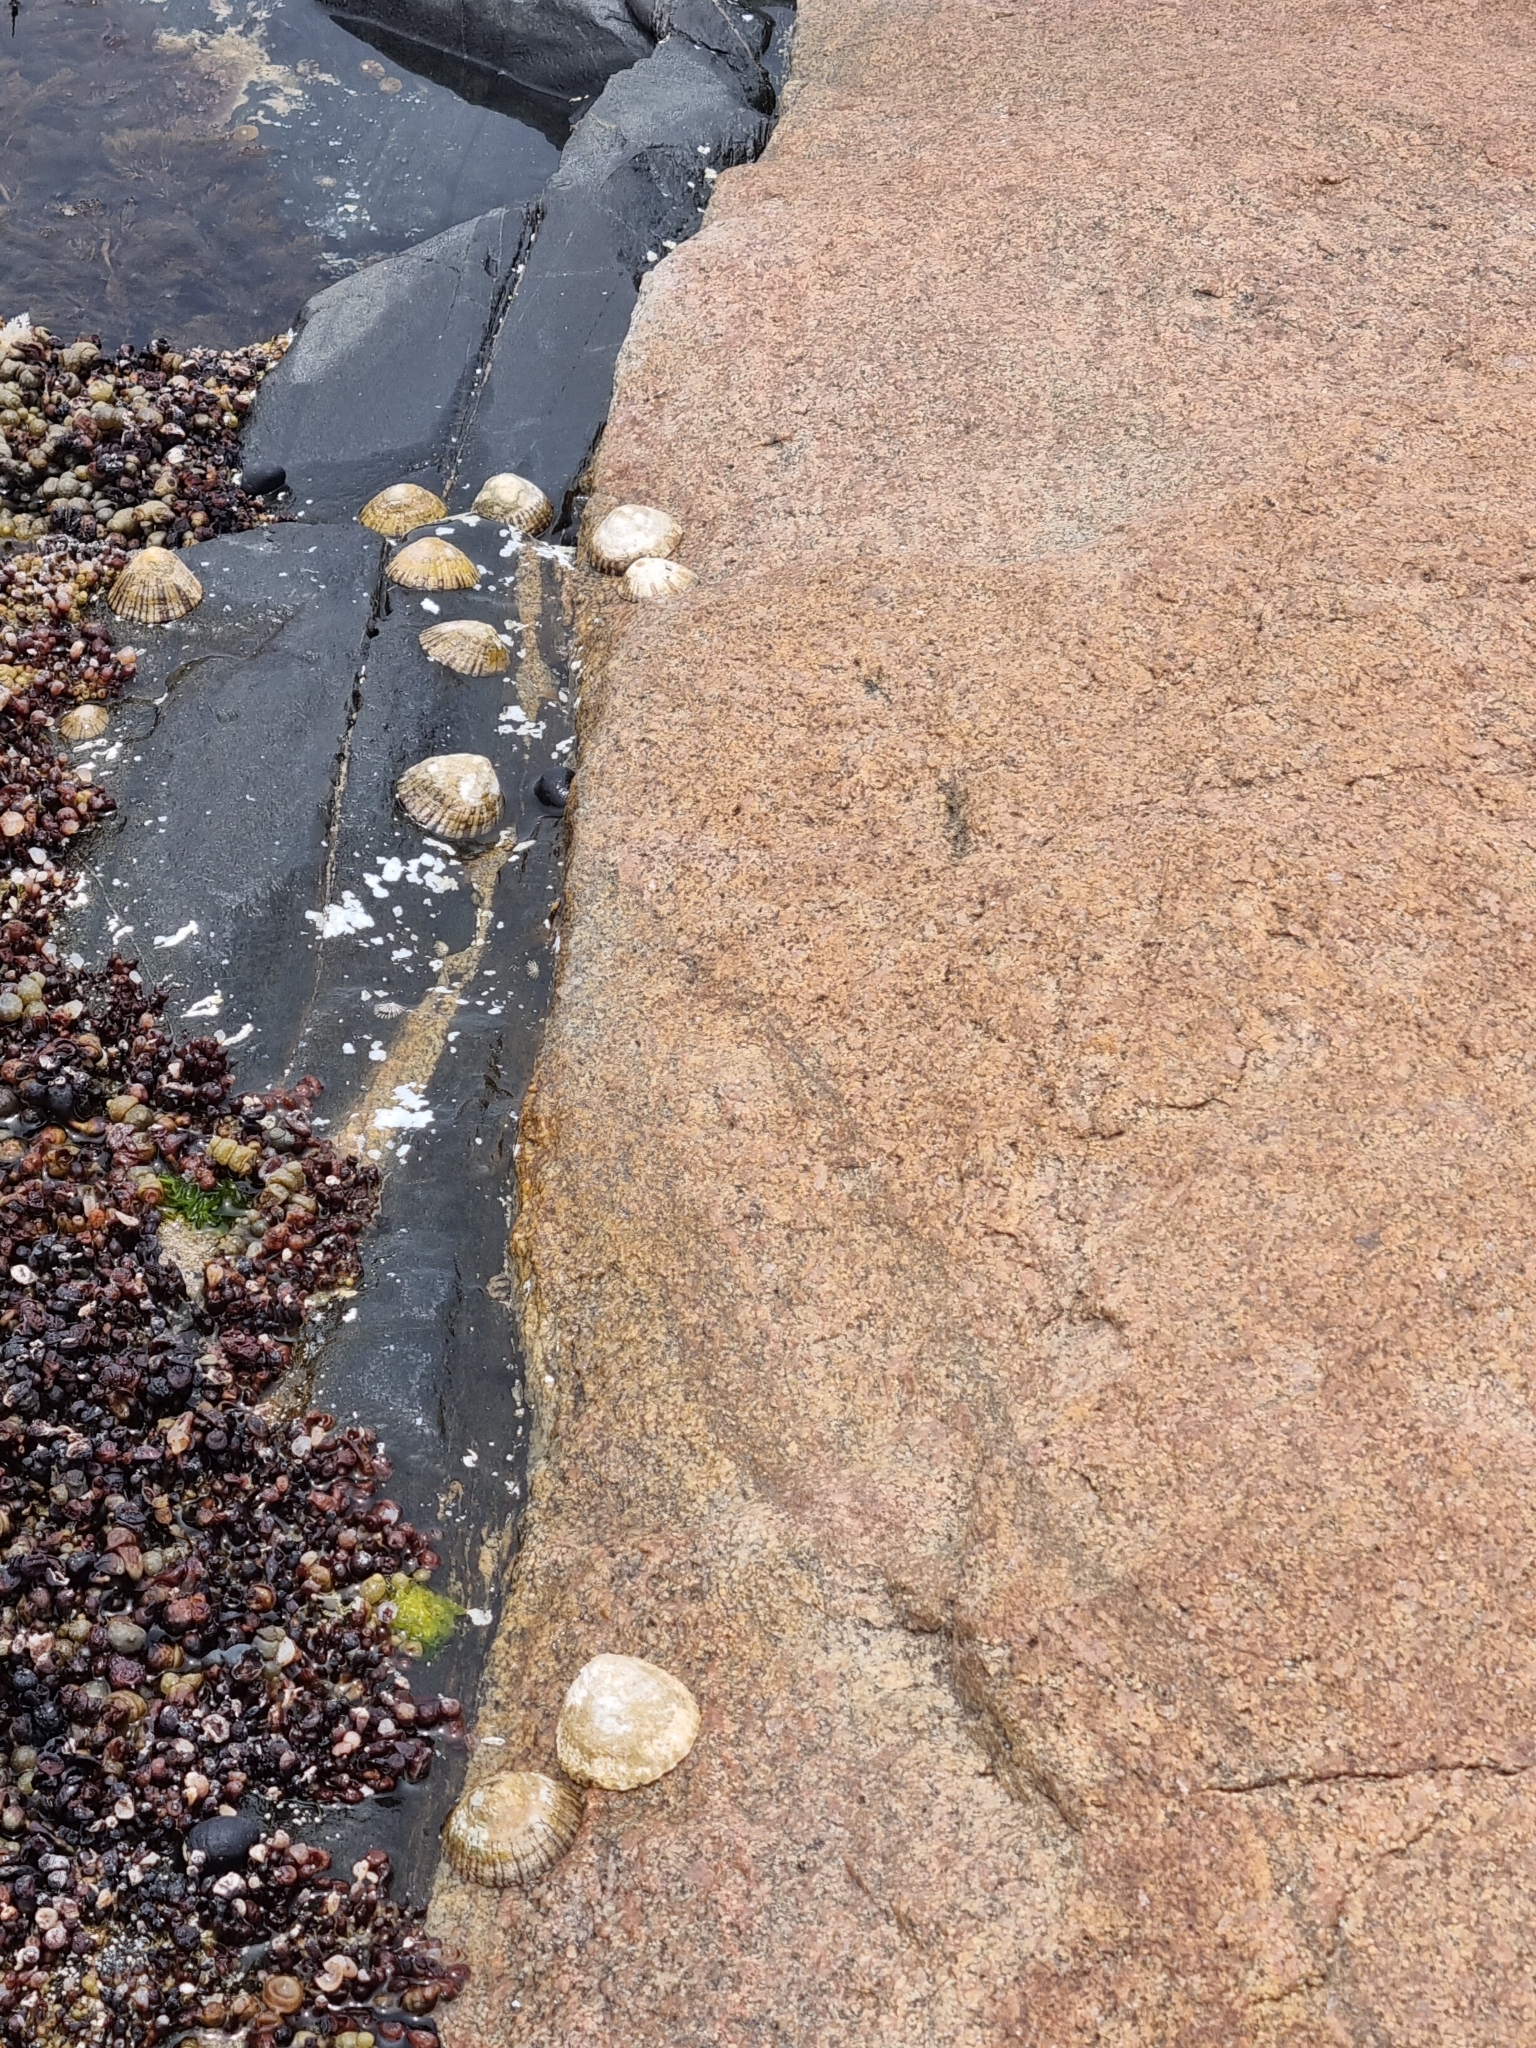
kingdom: Animalia
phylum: Mollusca
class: Gastropoda
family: Nacellidae
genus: Cellana
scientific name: Cellana tramoserica
